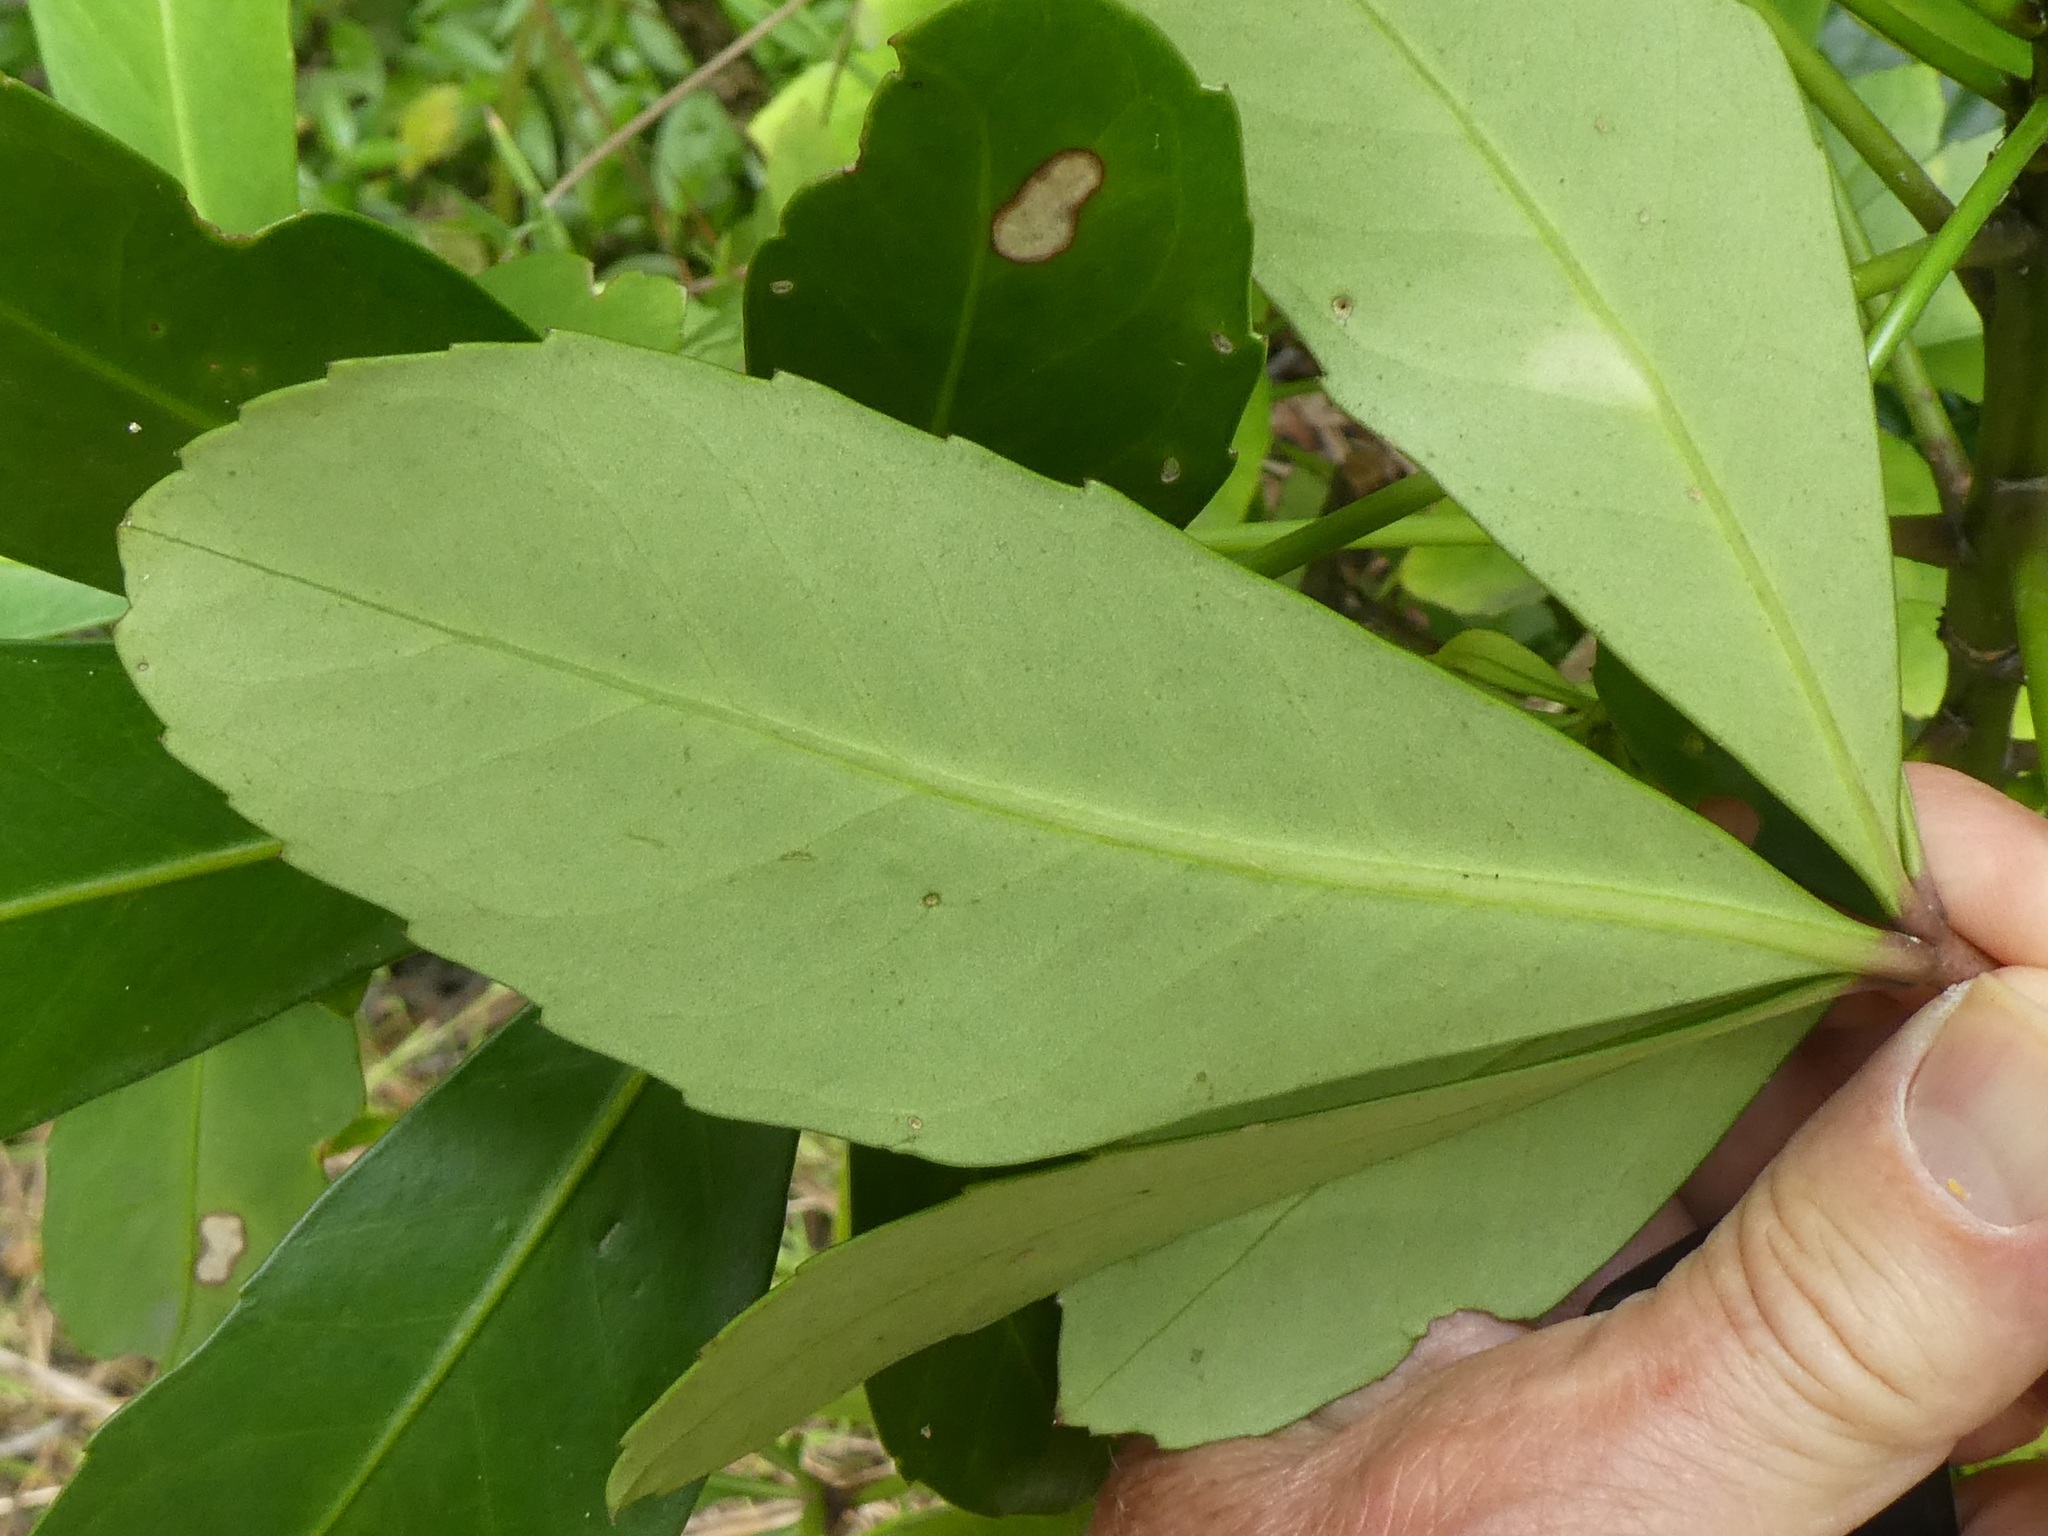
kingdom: Plantae
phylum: Tracheophyta
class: Magnoliopsida
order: Apiales
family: Araliaceae
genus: Pseudopanax
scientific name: Pseudopanax lessonii
